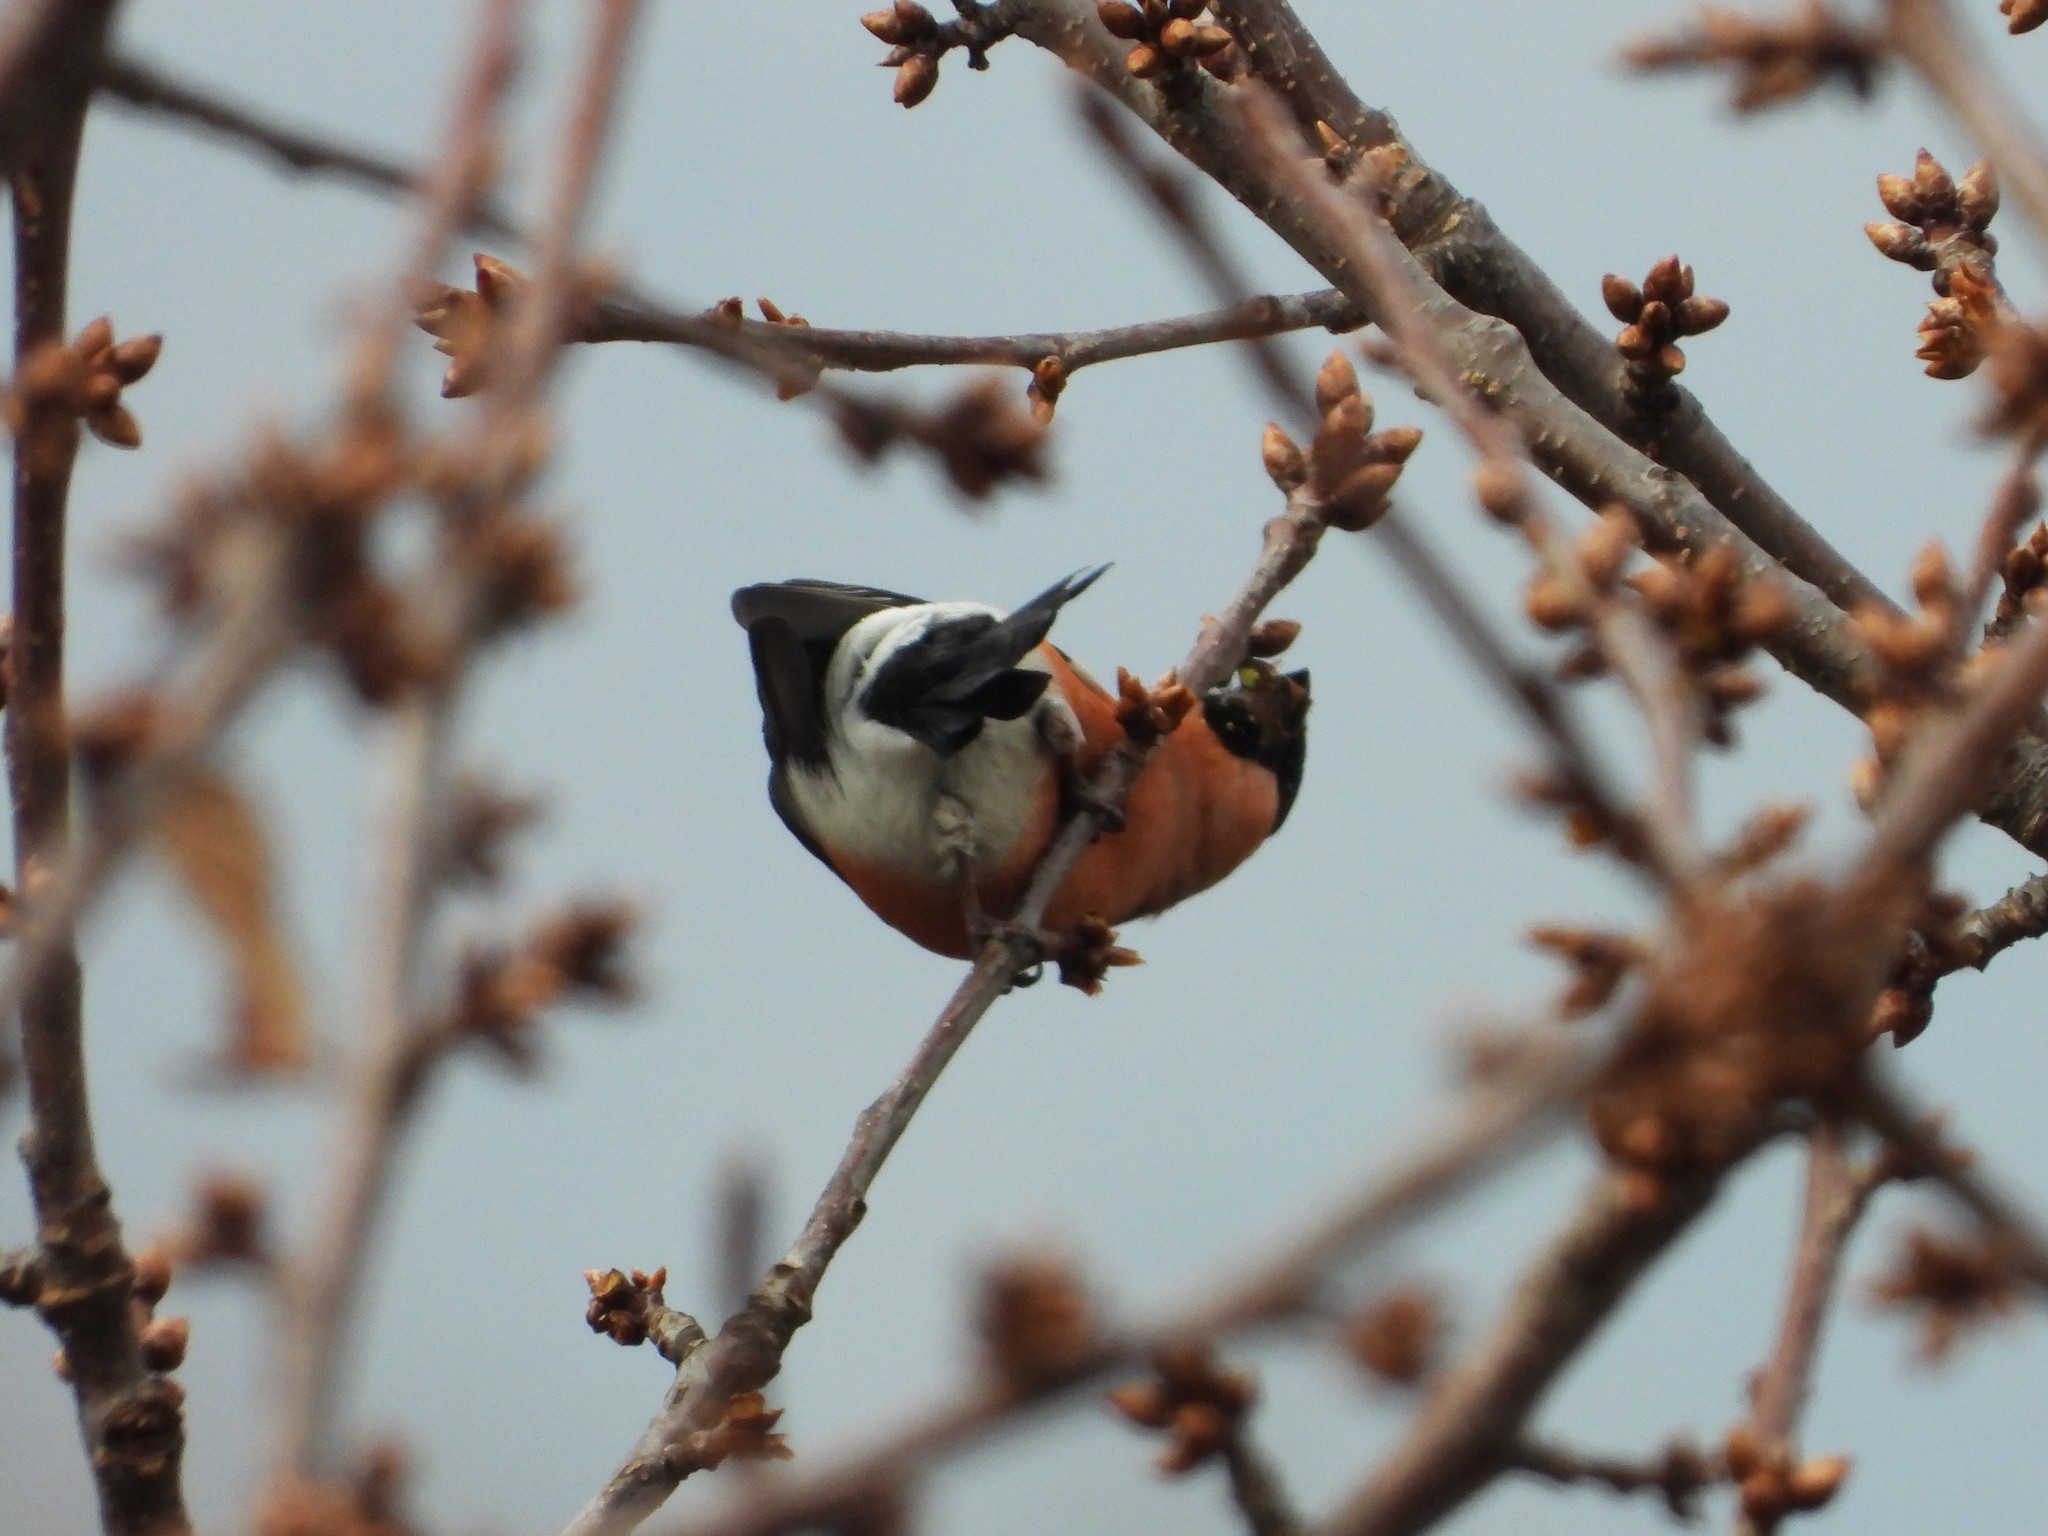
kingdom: Animalia
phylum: Chordata
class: Aves
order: Passeriformes
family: Fringillidae
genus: Pyrrhula
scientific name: Pyrrhula pyrrhula
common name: Eurasian bullfinch
